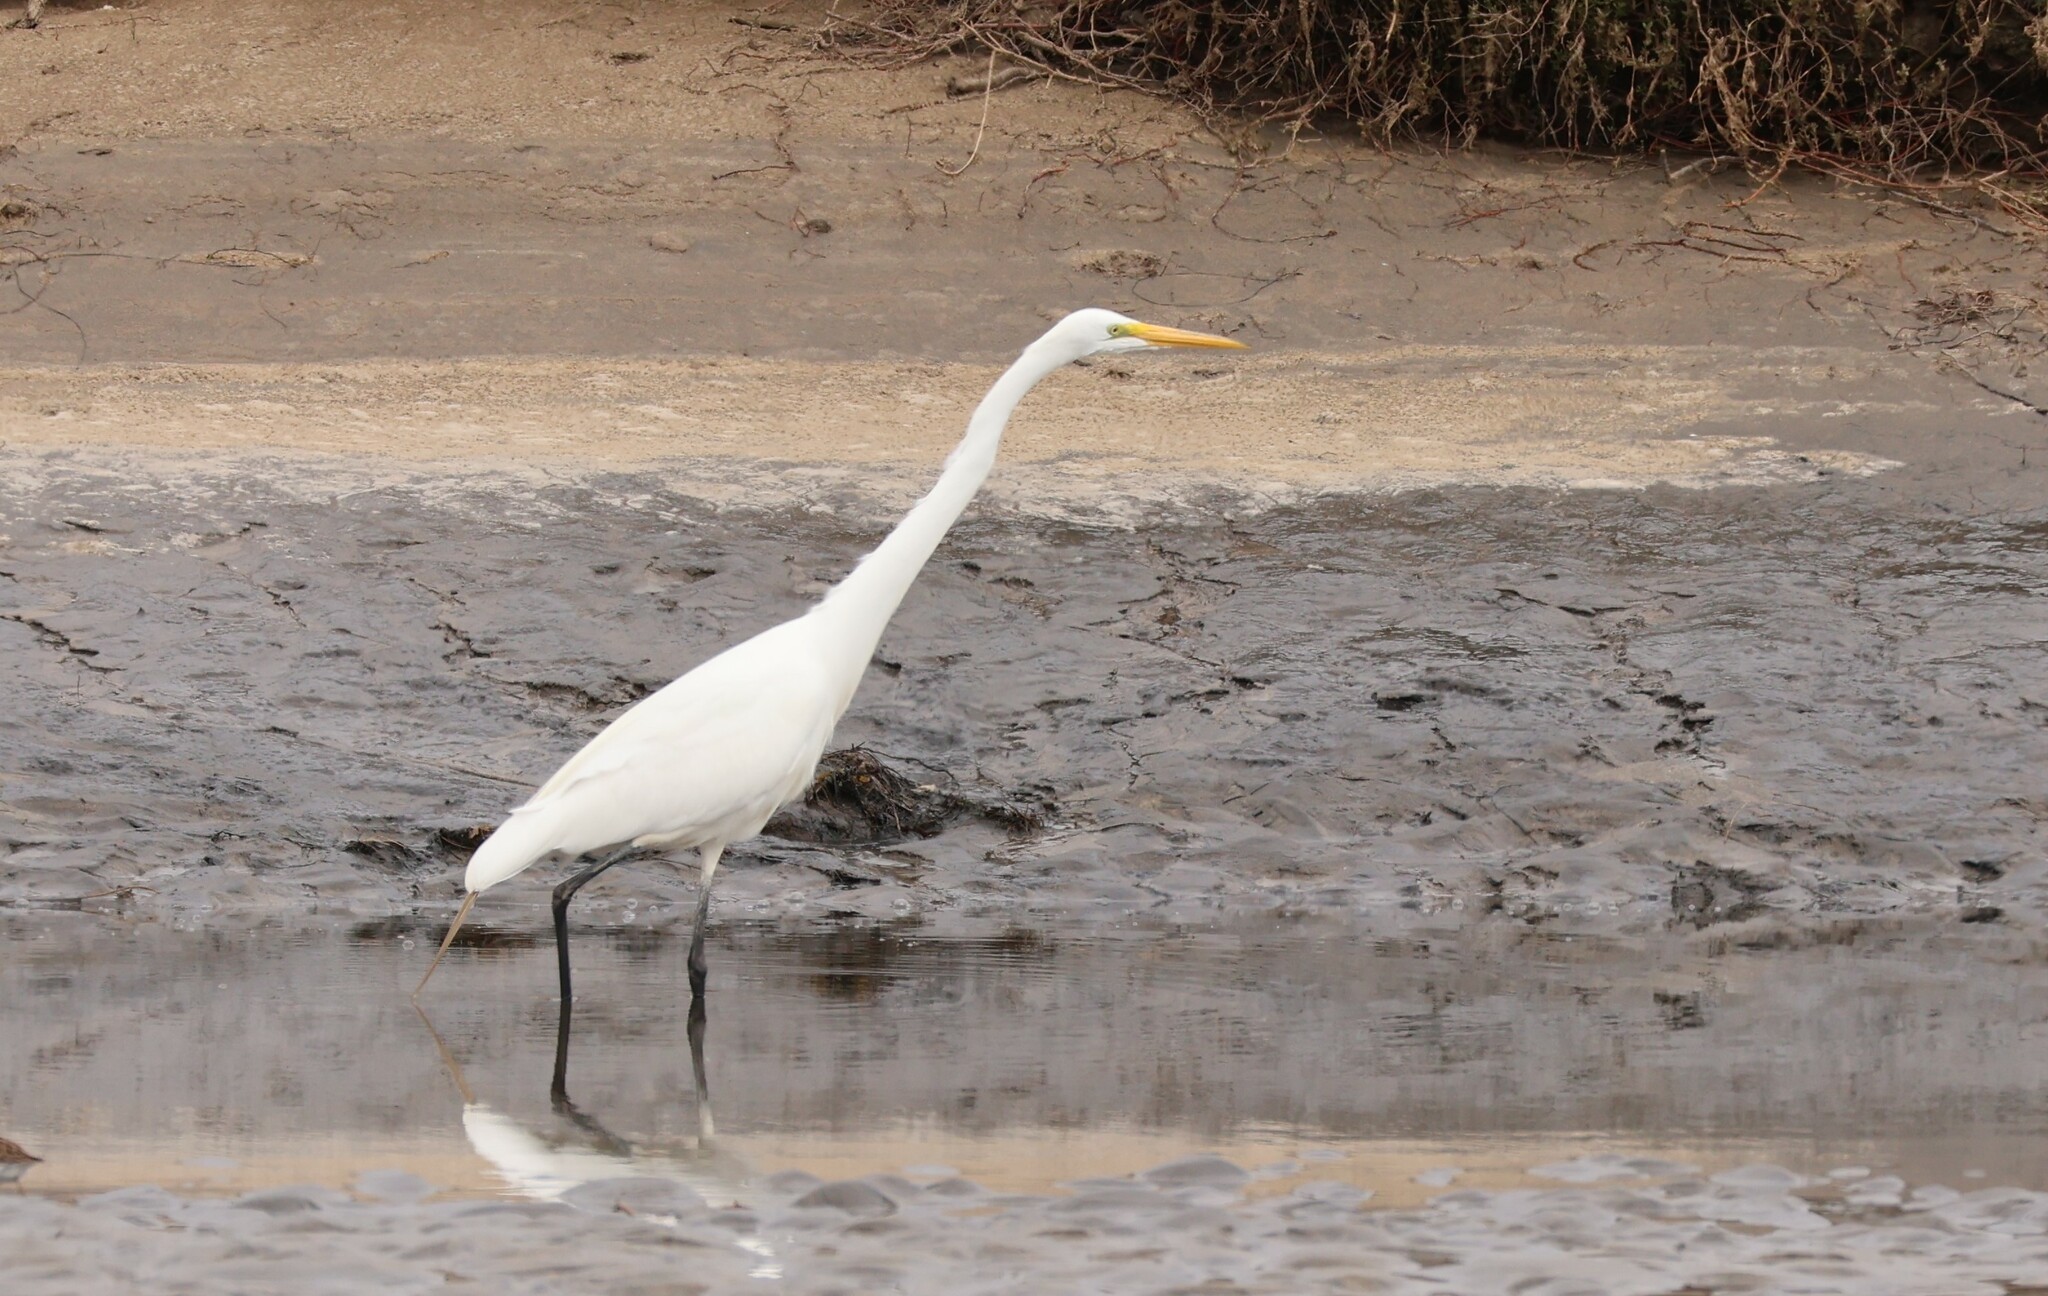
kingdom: Animalia
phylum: Chordata
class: Aves
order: Pelecaniformes
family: Ardeidae
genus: Ardea
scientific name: Ardea alba
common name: Great egret
